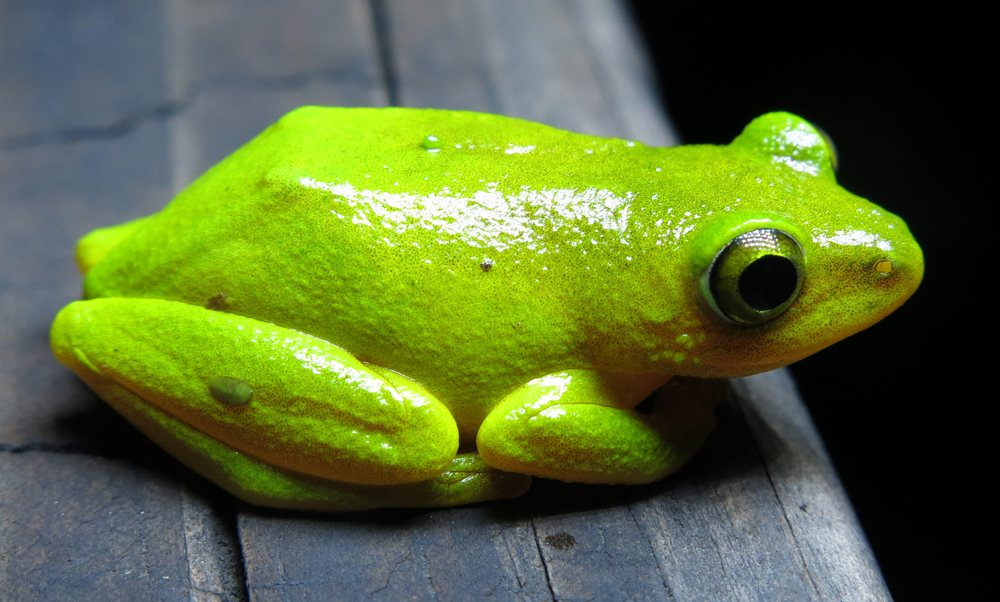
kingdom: Animalia
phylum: Chordata
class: Amphibia
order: Anura
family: Hyperoliidae
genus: Hyperolius
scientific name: Hyperolius tuberilinguis
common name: Tinker reed frog
